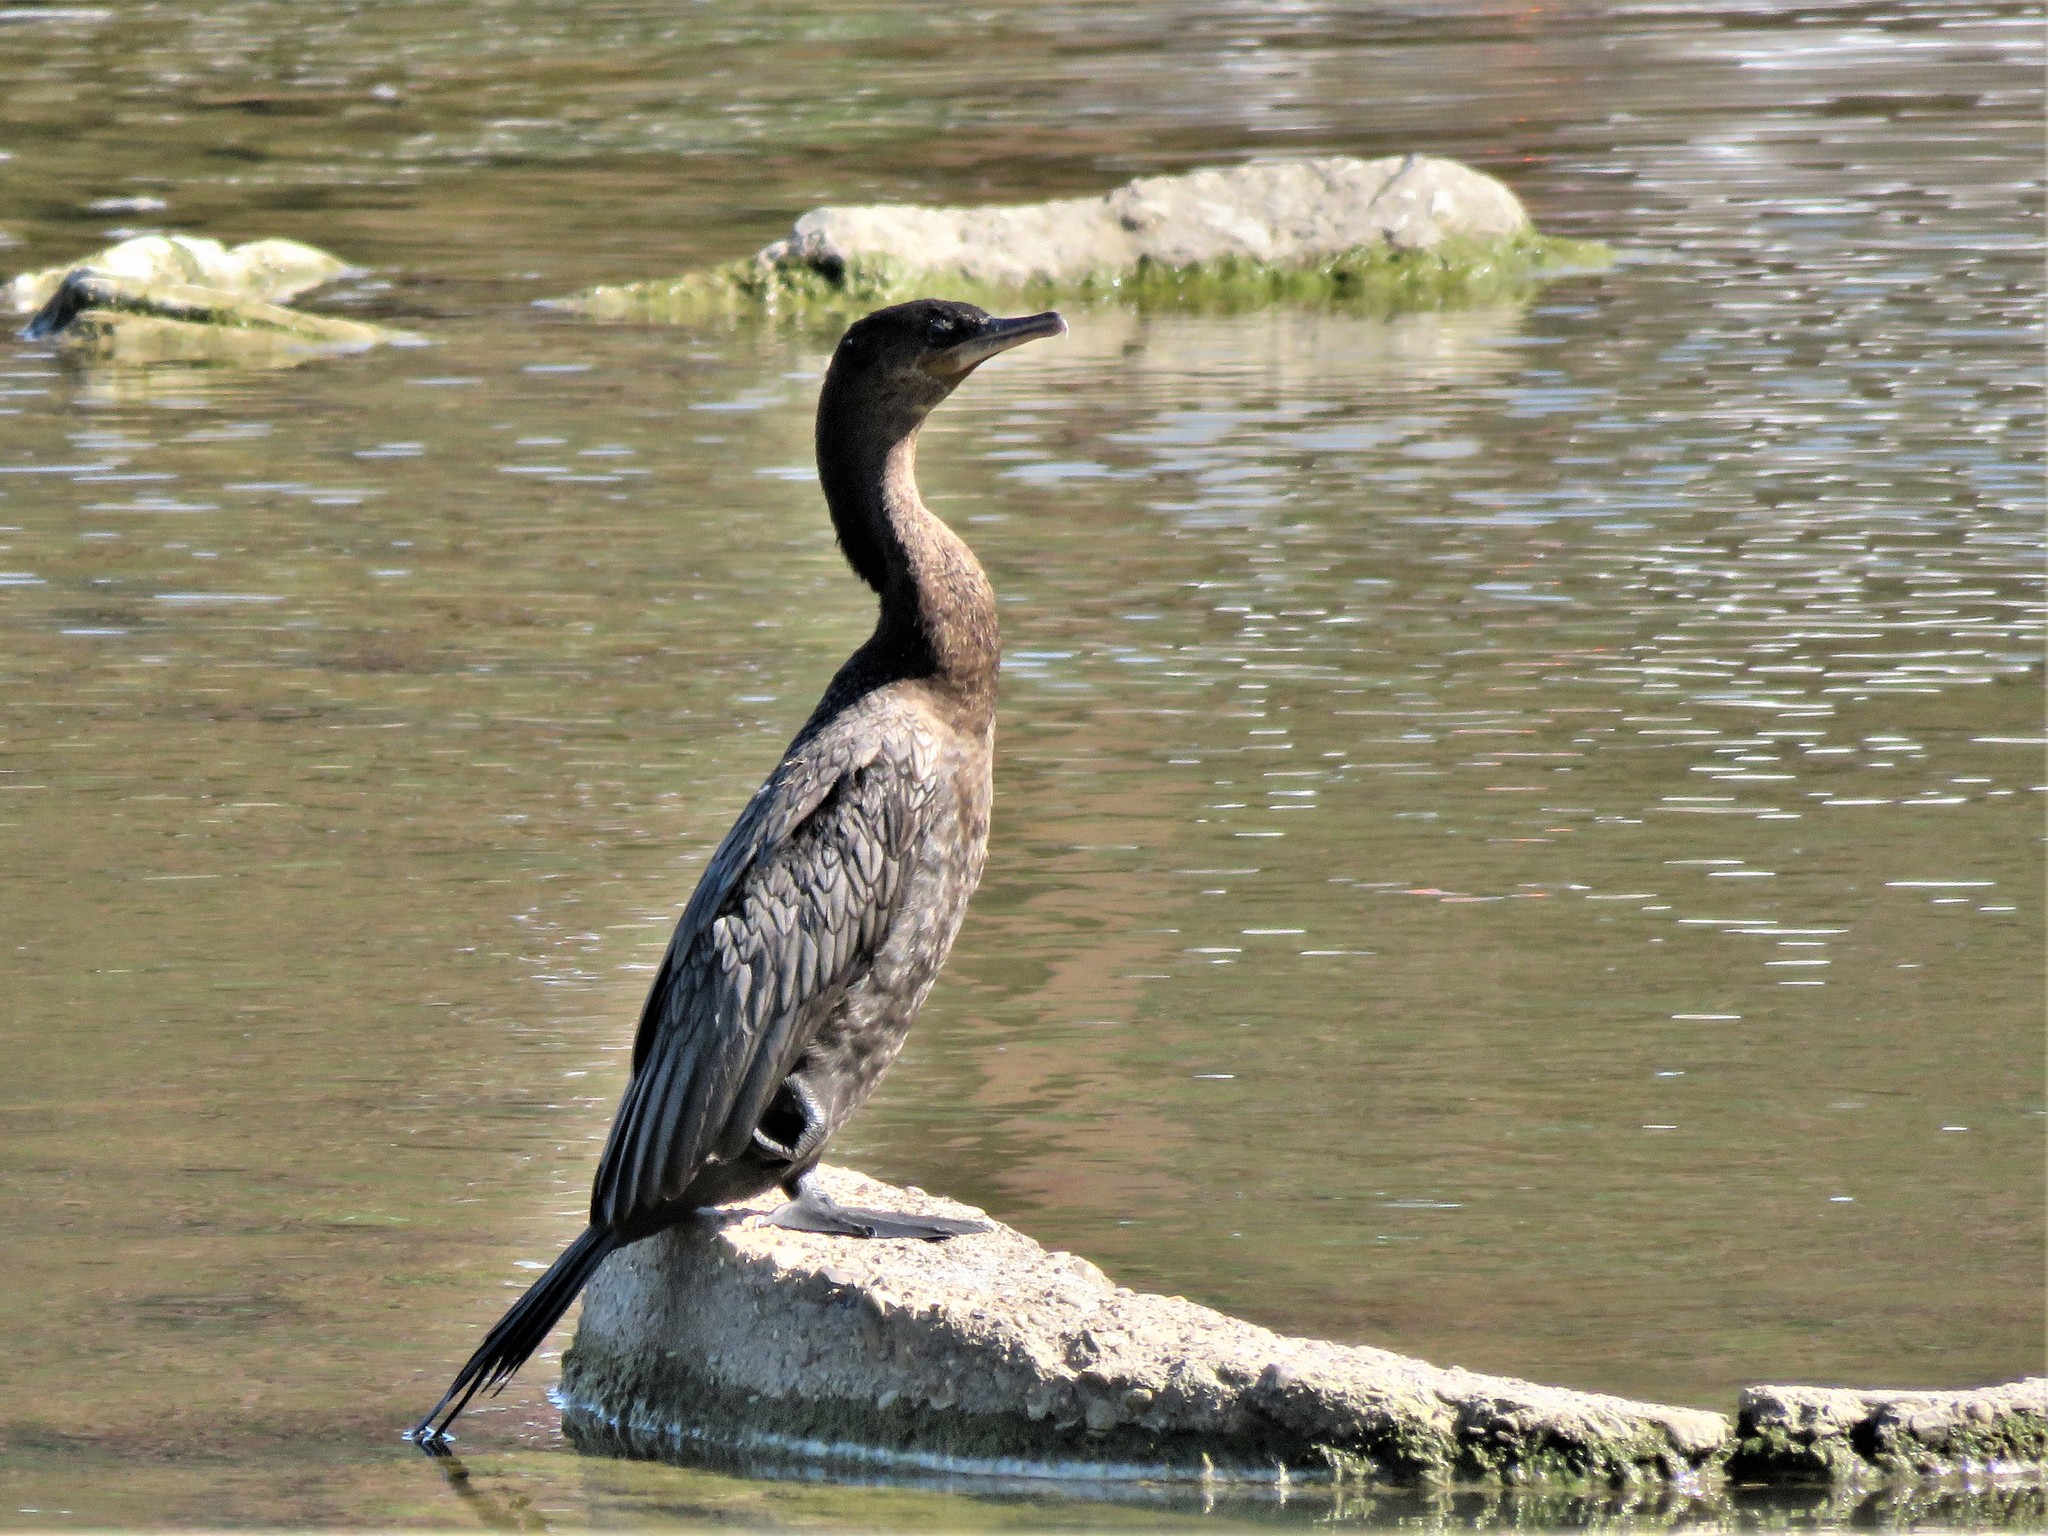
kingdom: Animalia
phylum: Chordata
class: Aves
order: Suliformes
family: Phalacrocoracidae
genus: Phalacrocorax
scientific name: Phalacrocorax brasilianus
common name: Neotropic cormorant
